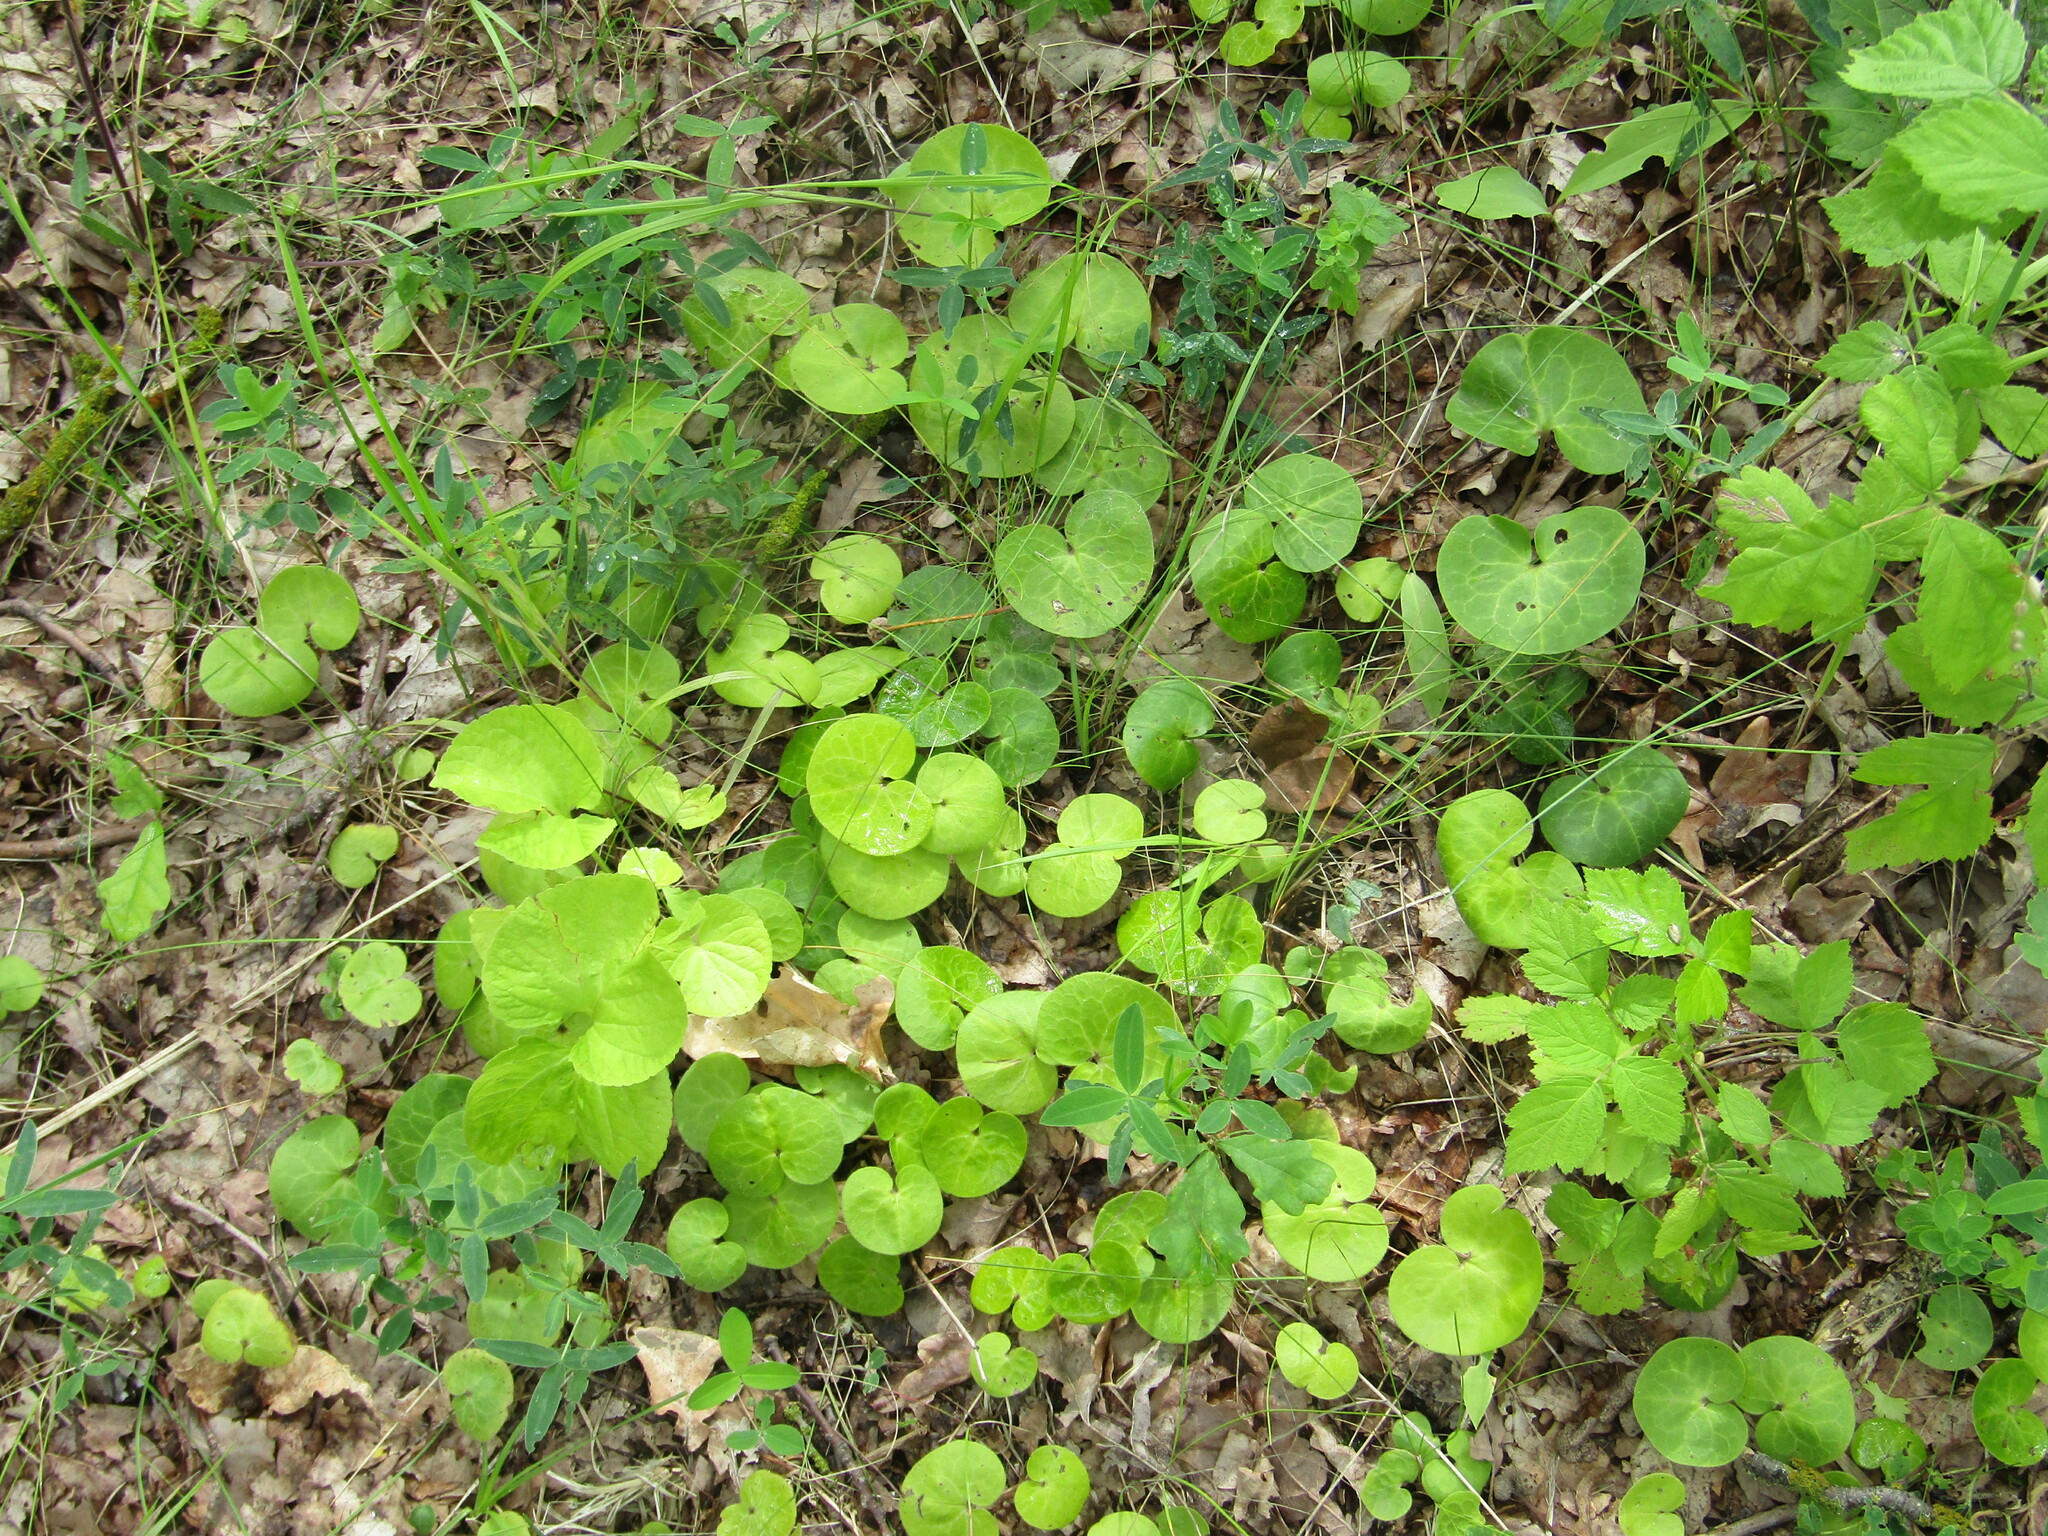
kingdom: Plantae
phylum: Tracheophyta
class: Magnoliopsida
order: Piperales
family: Aristolochiaceae
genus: Asarum
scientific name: Asarum europaeum
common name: Asarabacca
